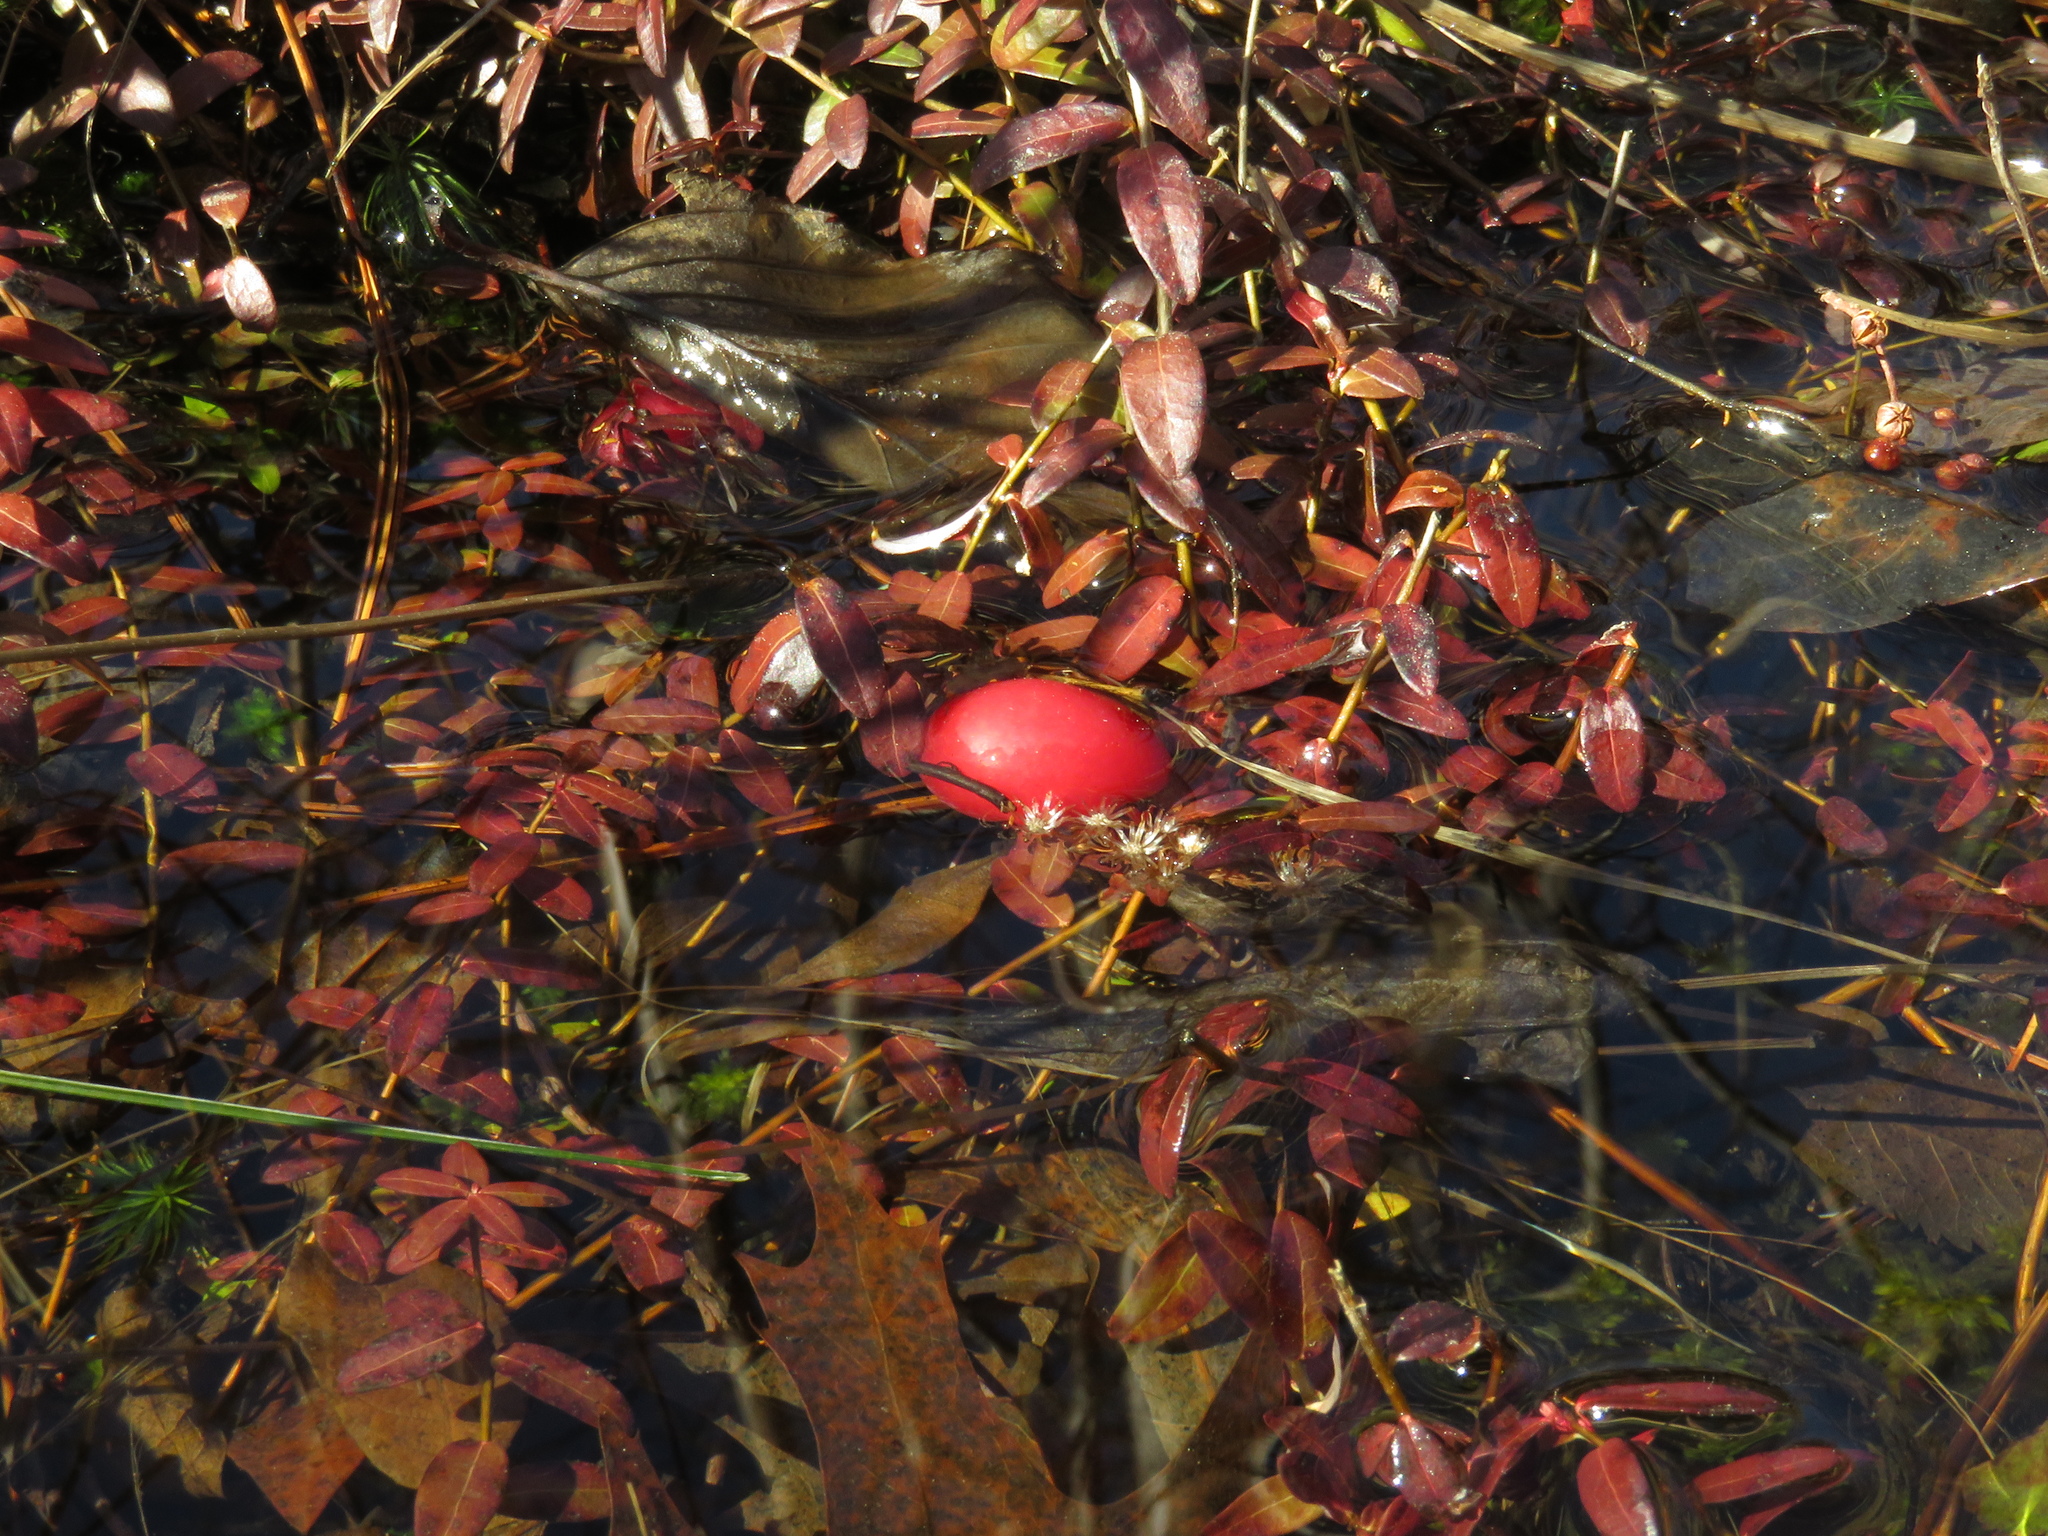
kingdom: Plantae
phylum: Tracheophyta
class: Magnoliopsida
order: Ericales
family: Ericaceae
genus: Vaccinium
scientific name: Vaccinium macrocarpon
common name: American cranberry
